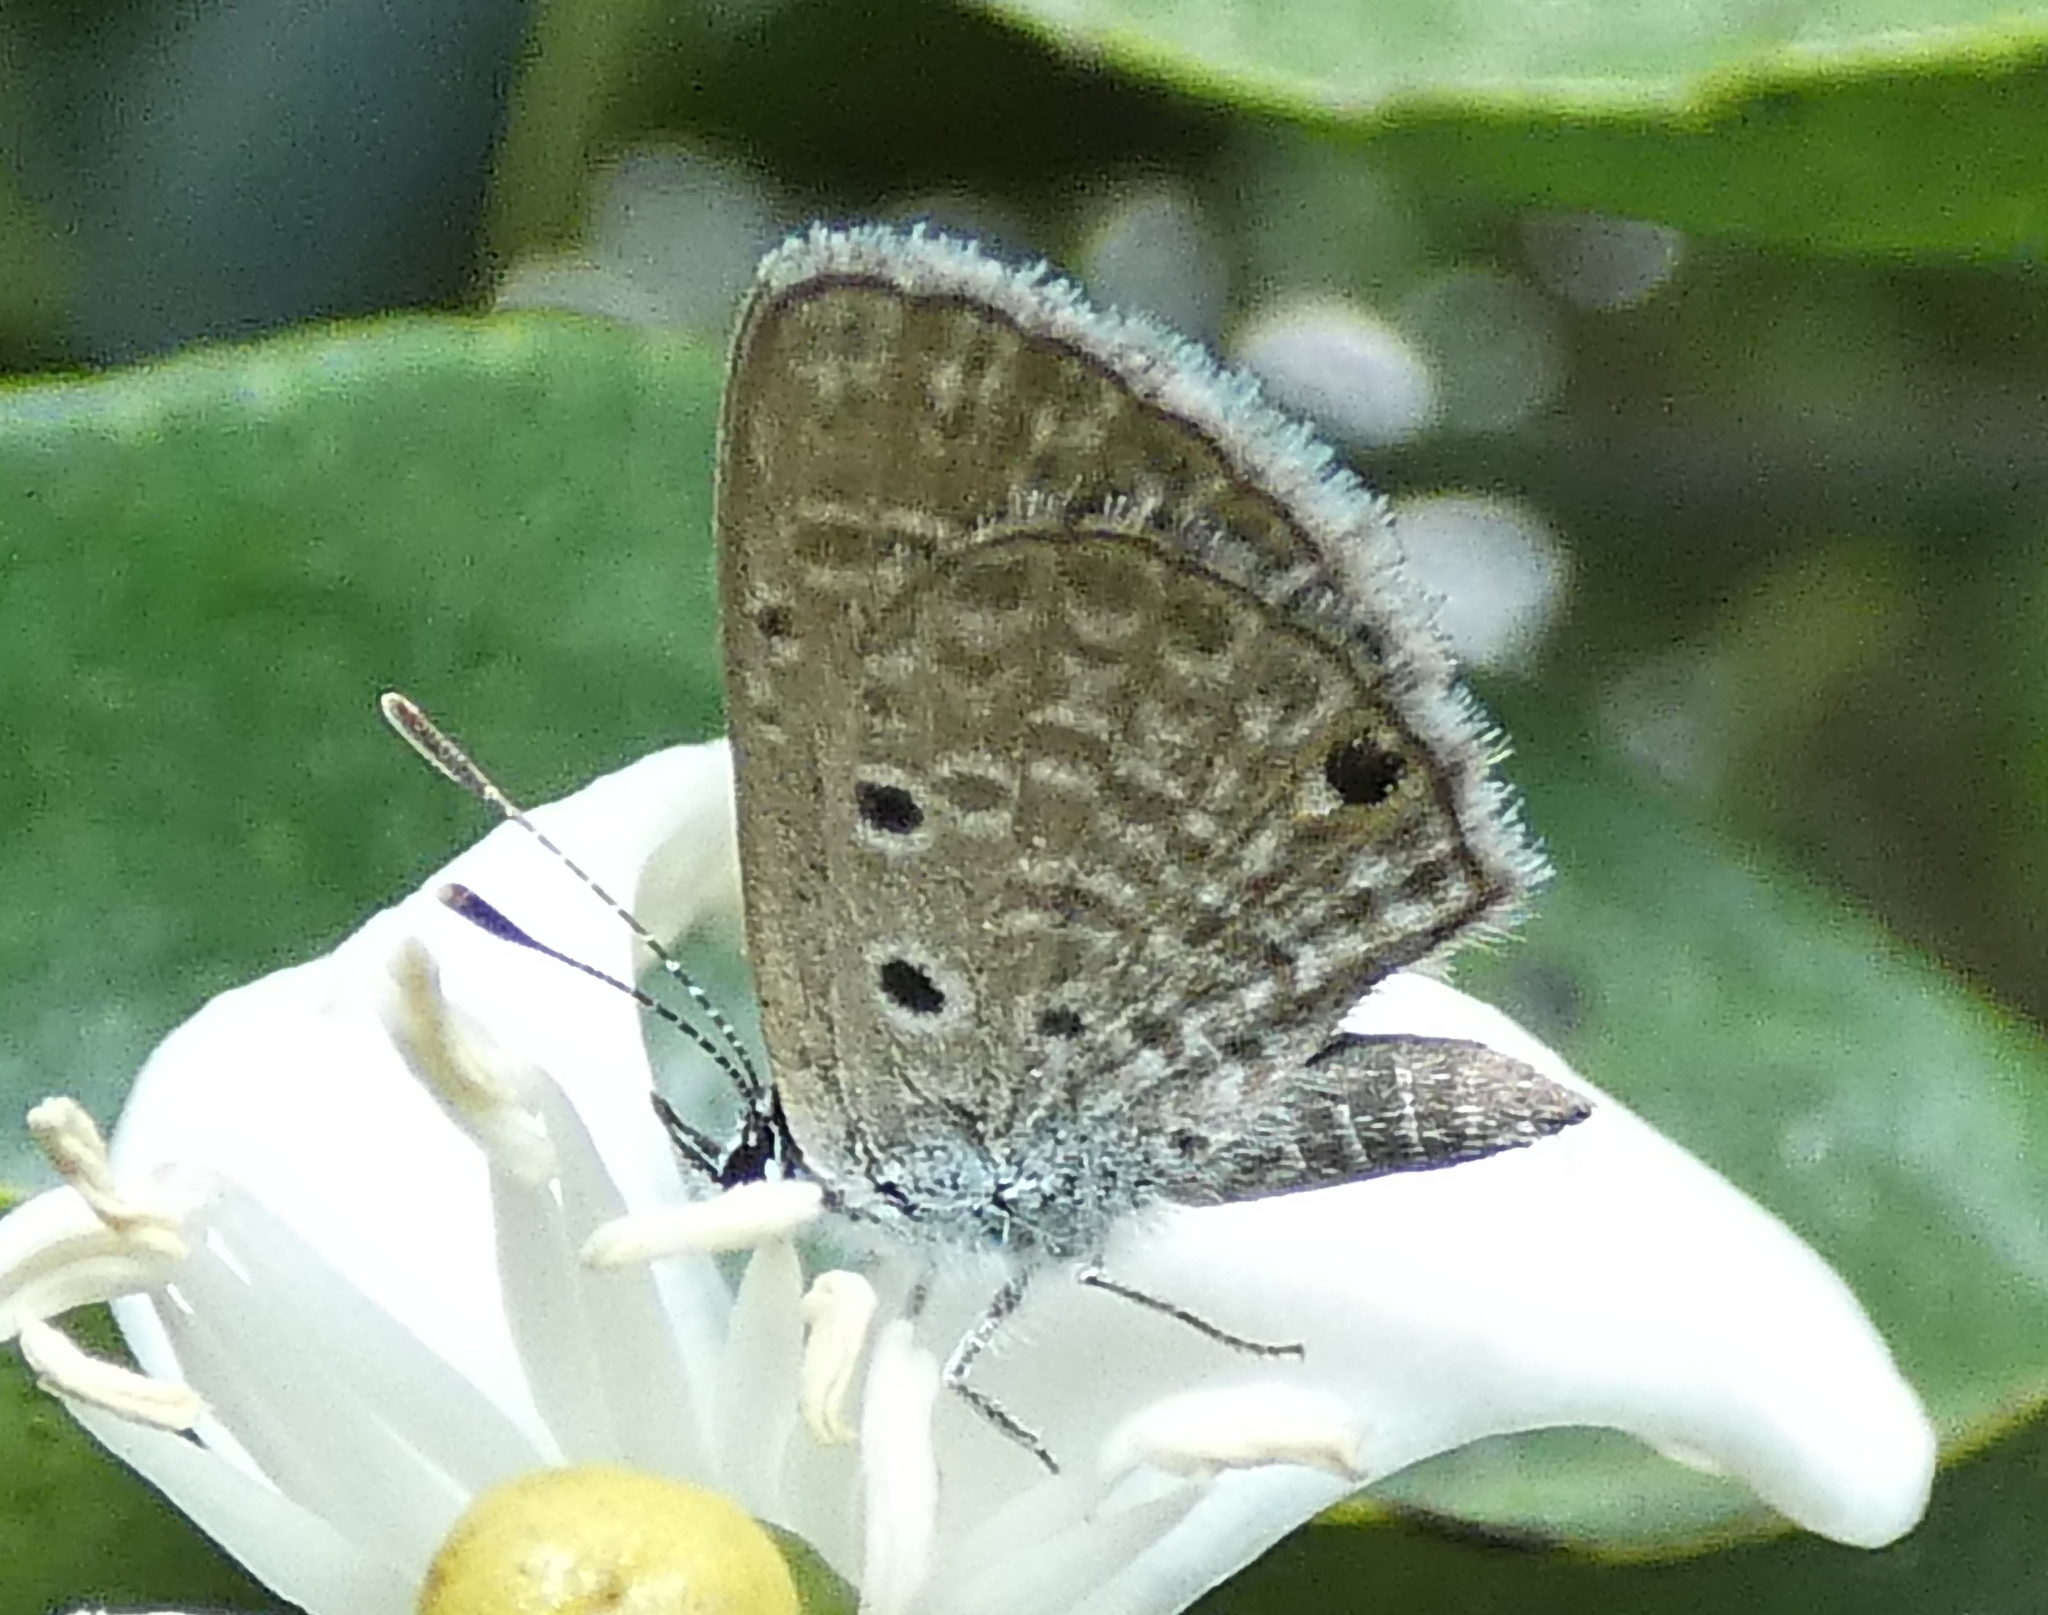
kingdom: Animalia
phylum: Arthropoda
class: Insecta
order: Lepidoptera
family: Lycaenidae
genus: Hemiargus
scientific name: Hemiargus hanno
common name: Common blue
